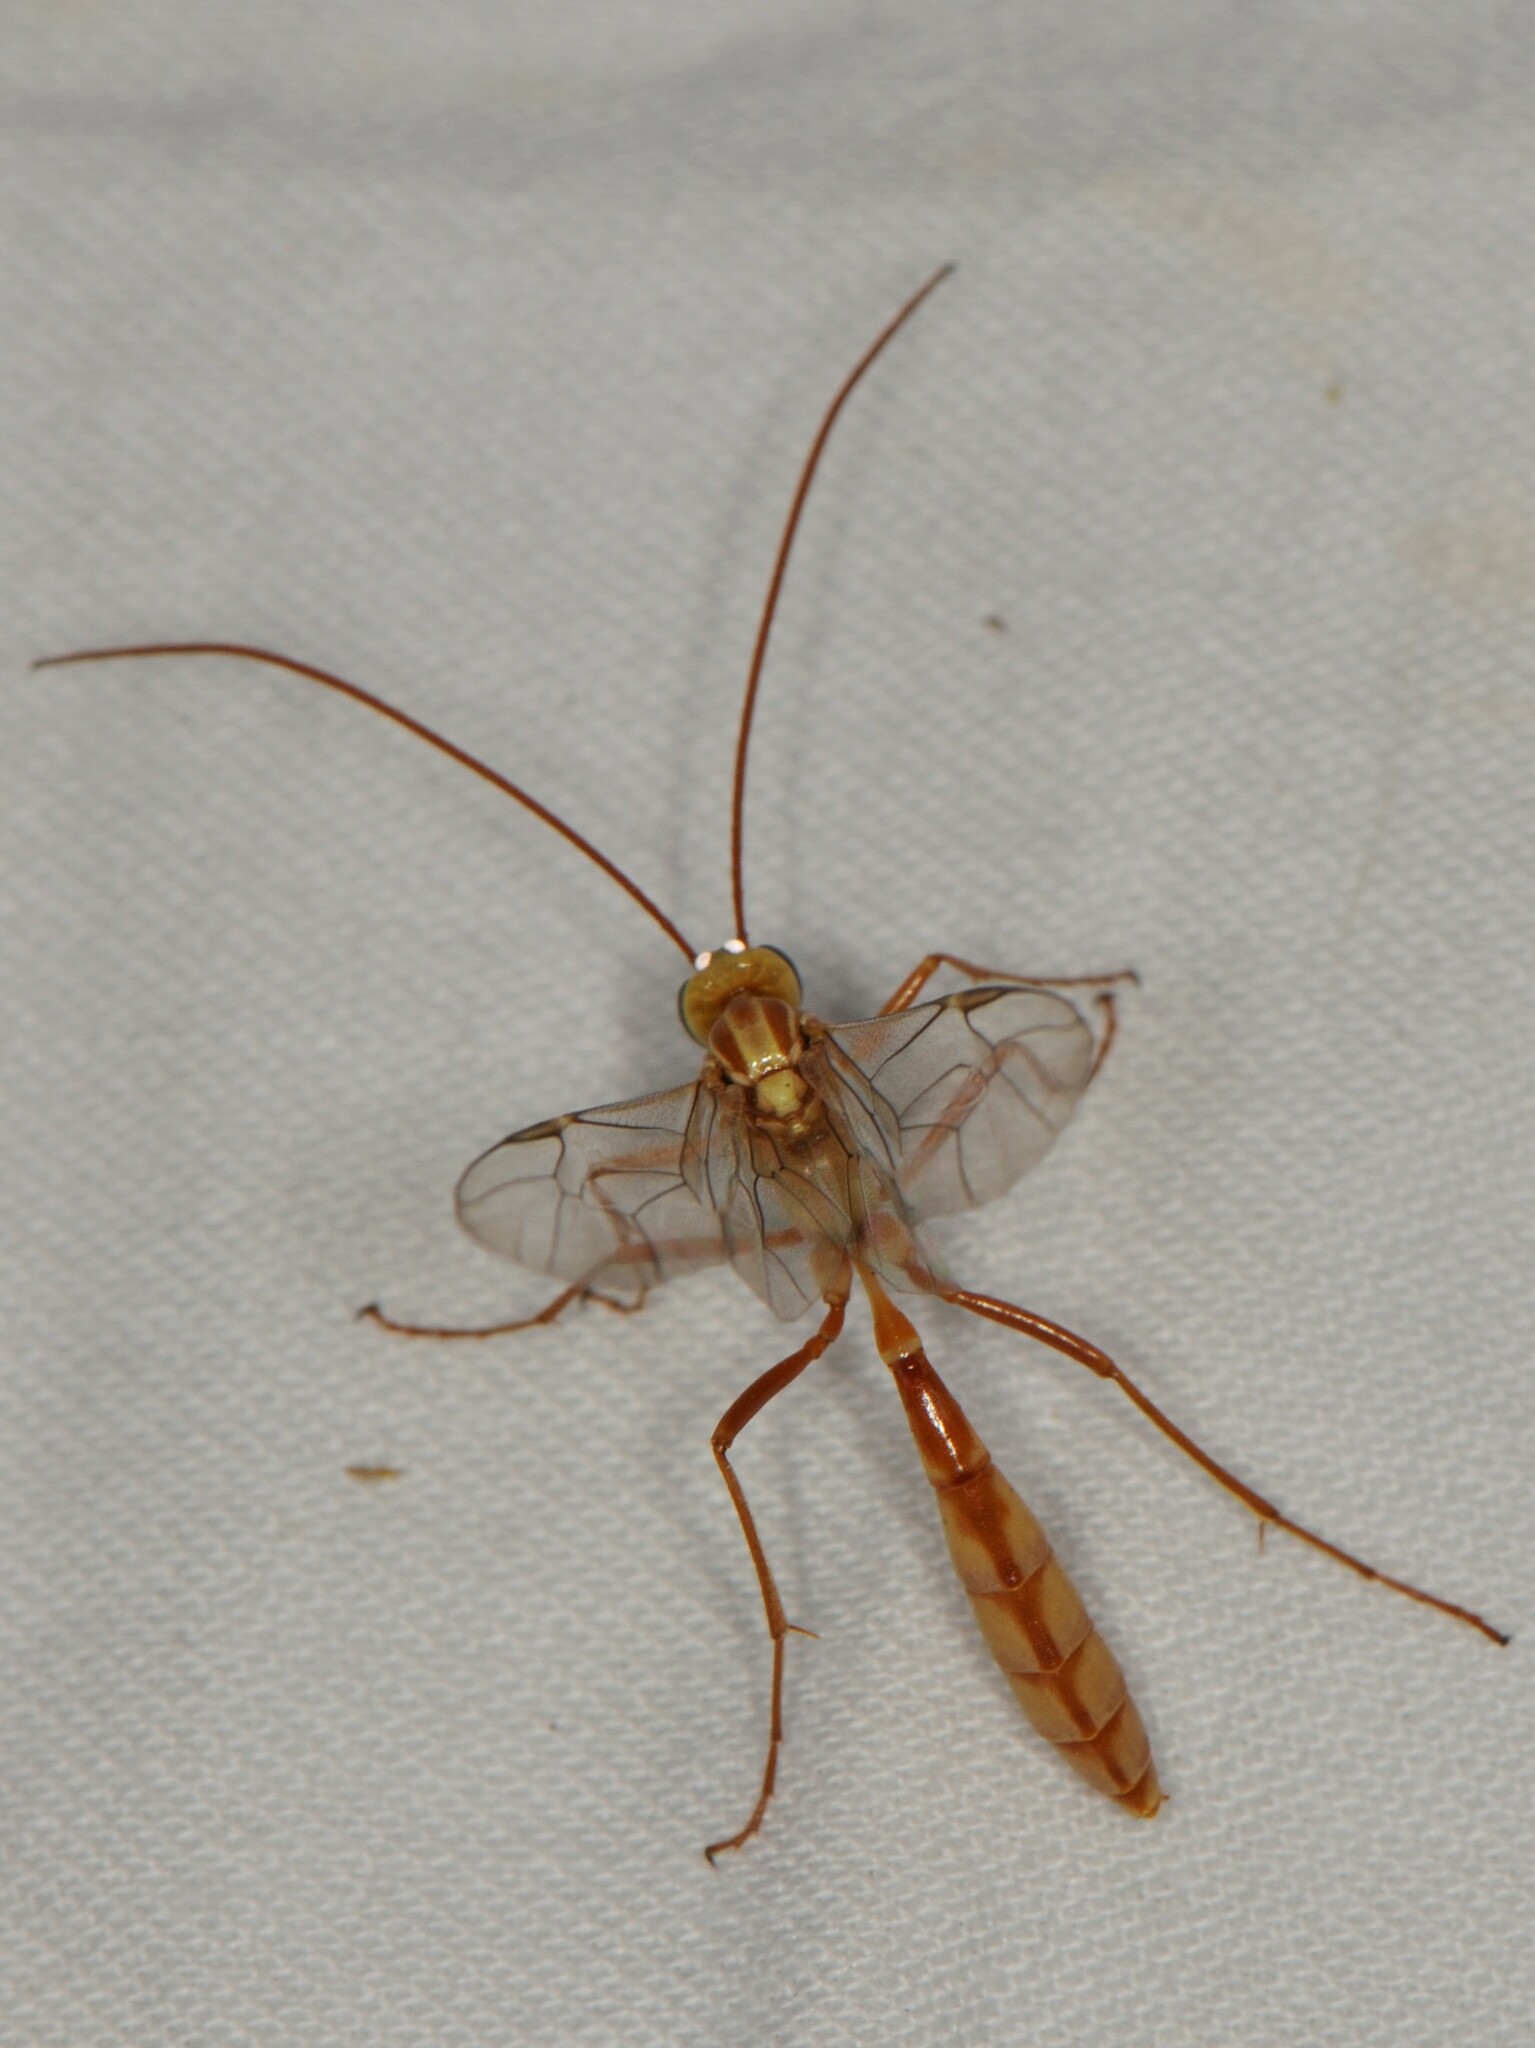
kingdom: Animalia
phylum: Arthropoda
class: Insecta
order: Hymenoptera
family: Ichneumonidae
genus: Eremotylus
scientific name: Eremotylus
